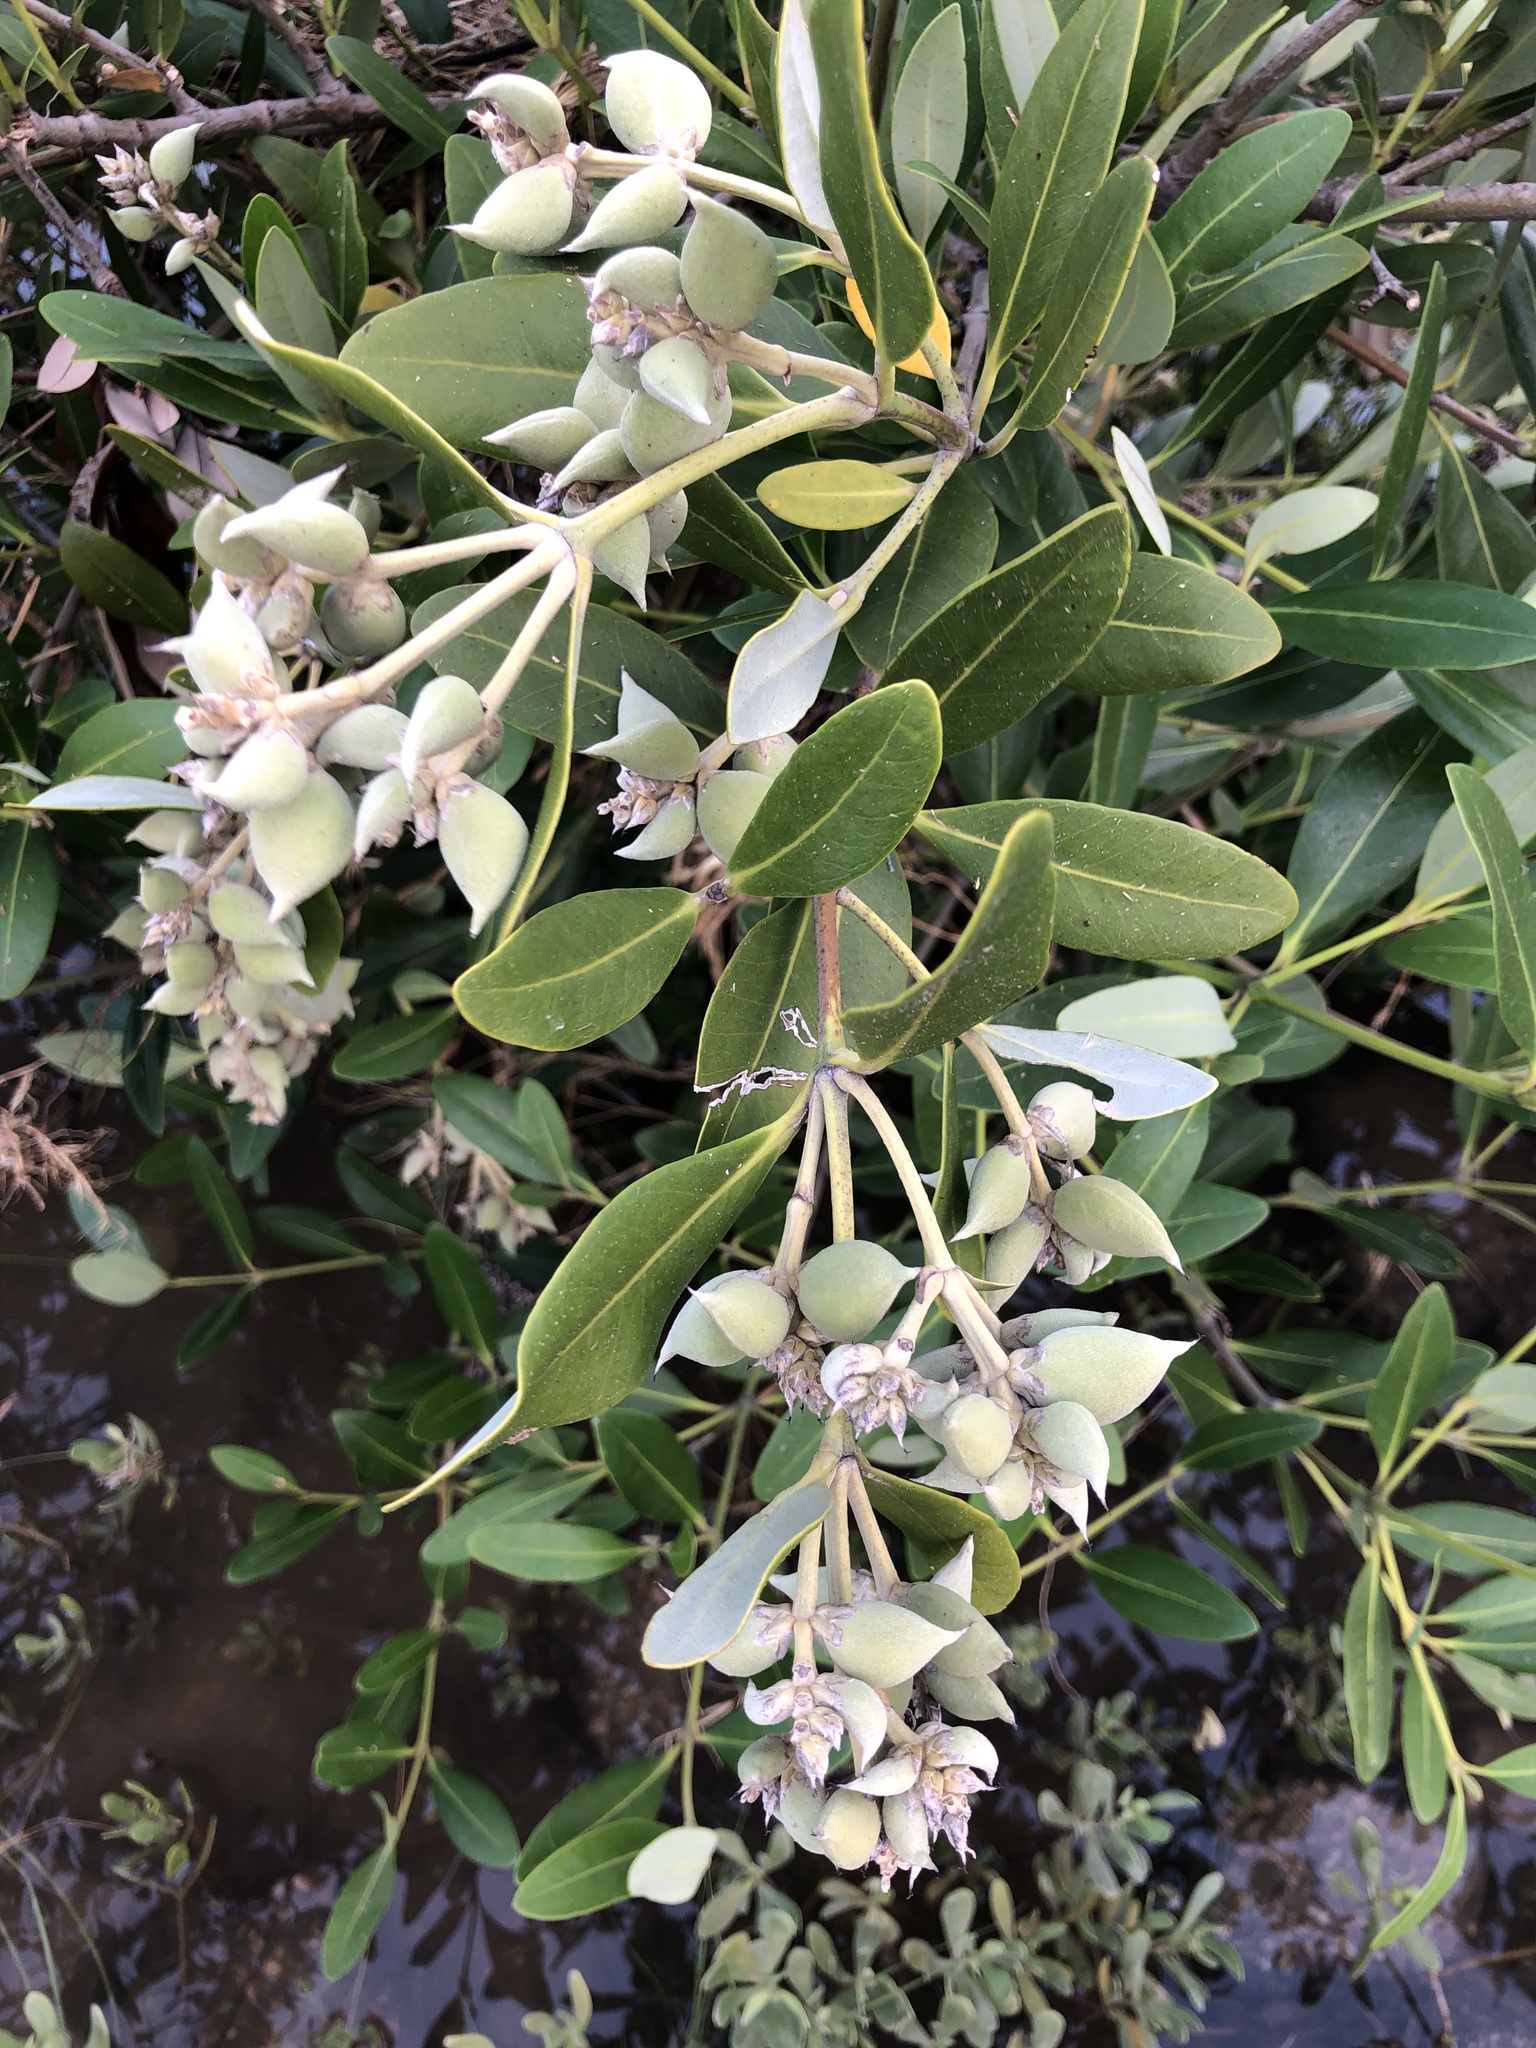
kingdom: Plantae
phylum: Tracheophyta
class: Magnoliopsida
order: Lamiales
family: Acanthaceae
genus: Avicennia
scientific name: Avicennia germinans
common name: Black mangrove
